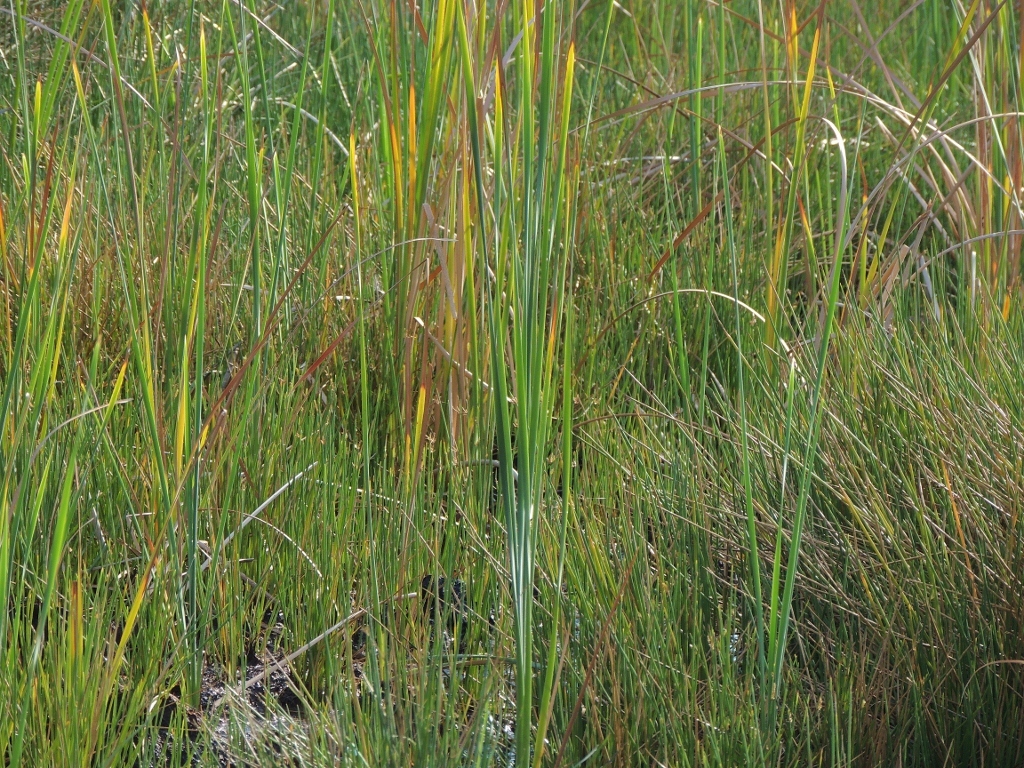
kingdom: Plantae
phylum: Tracheophyta
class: Liliopsida
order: Poales
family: Typhaceae
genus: Typha
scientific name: Typha capensis
